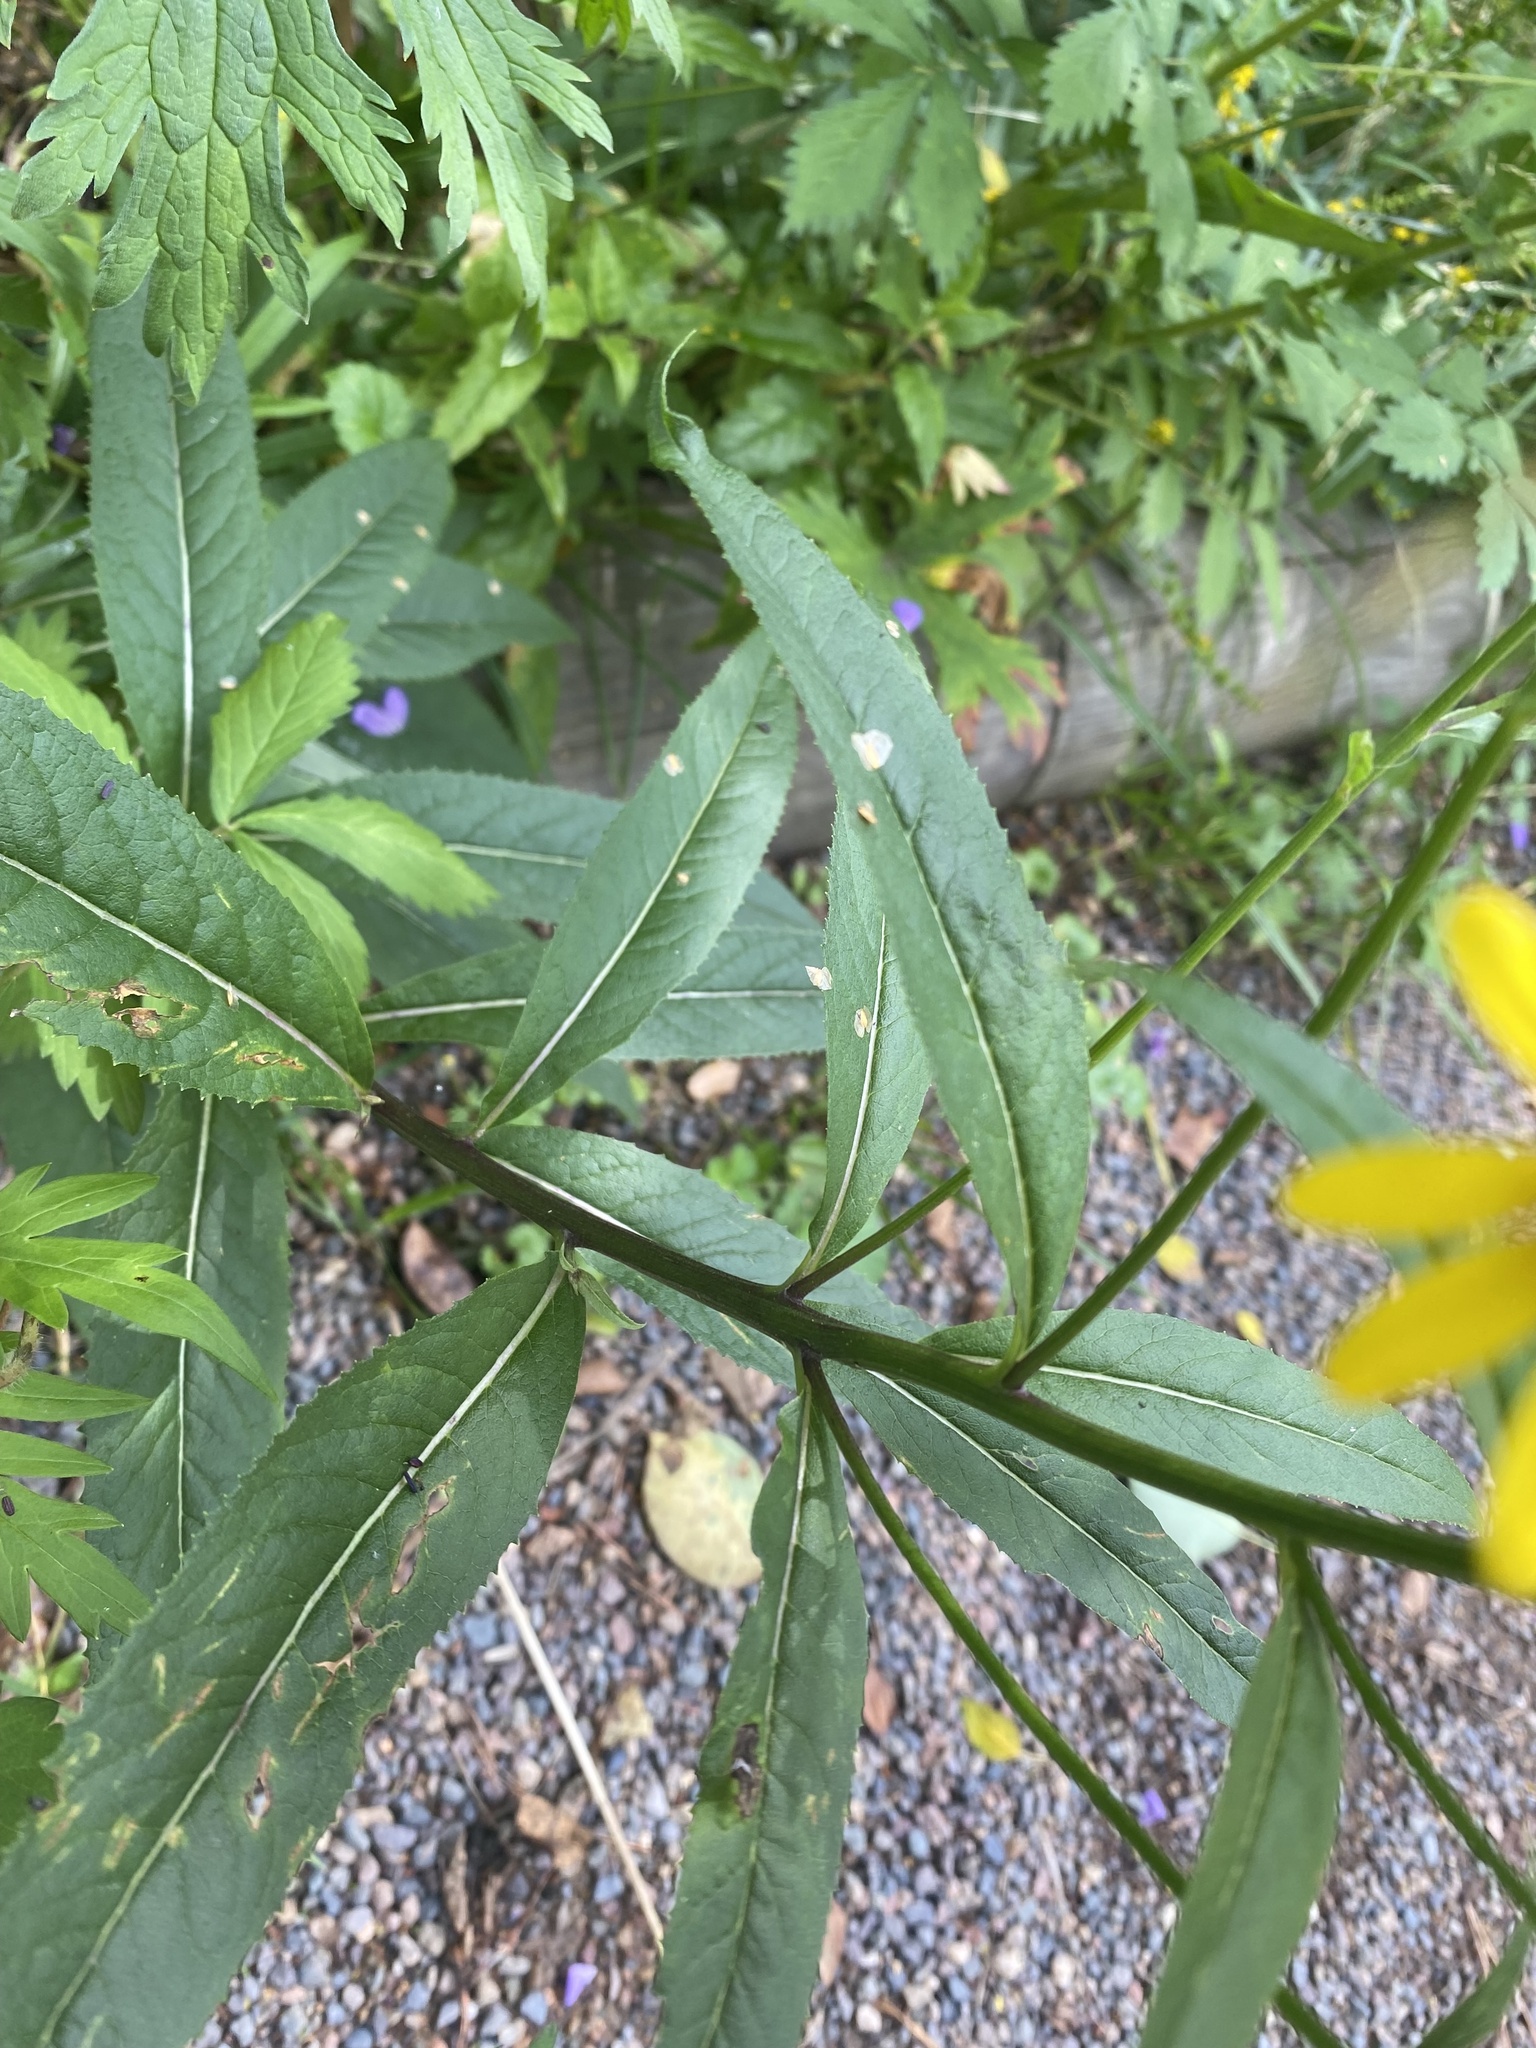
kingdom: Plantae
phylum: Tracheophyta
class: Magnoliopsida
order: Asterales
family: Asteraceae
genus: Senecio
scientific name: Senecio nemorensis
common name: Alpine ragwort
